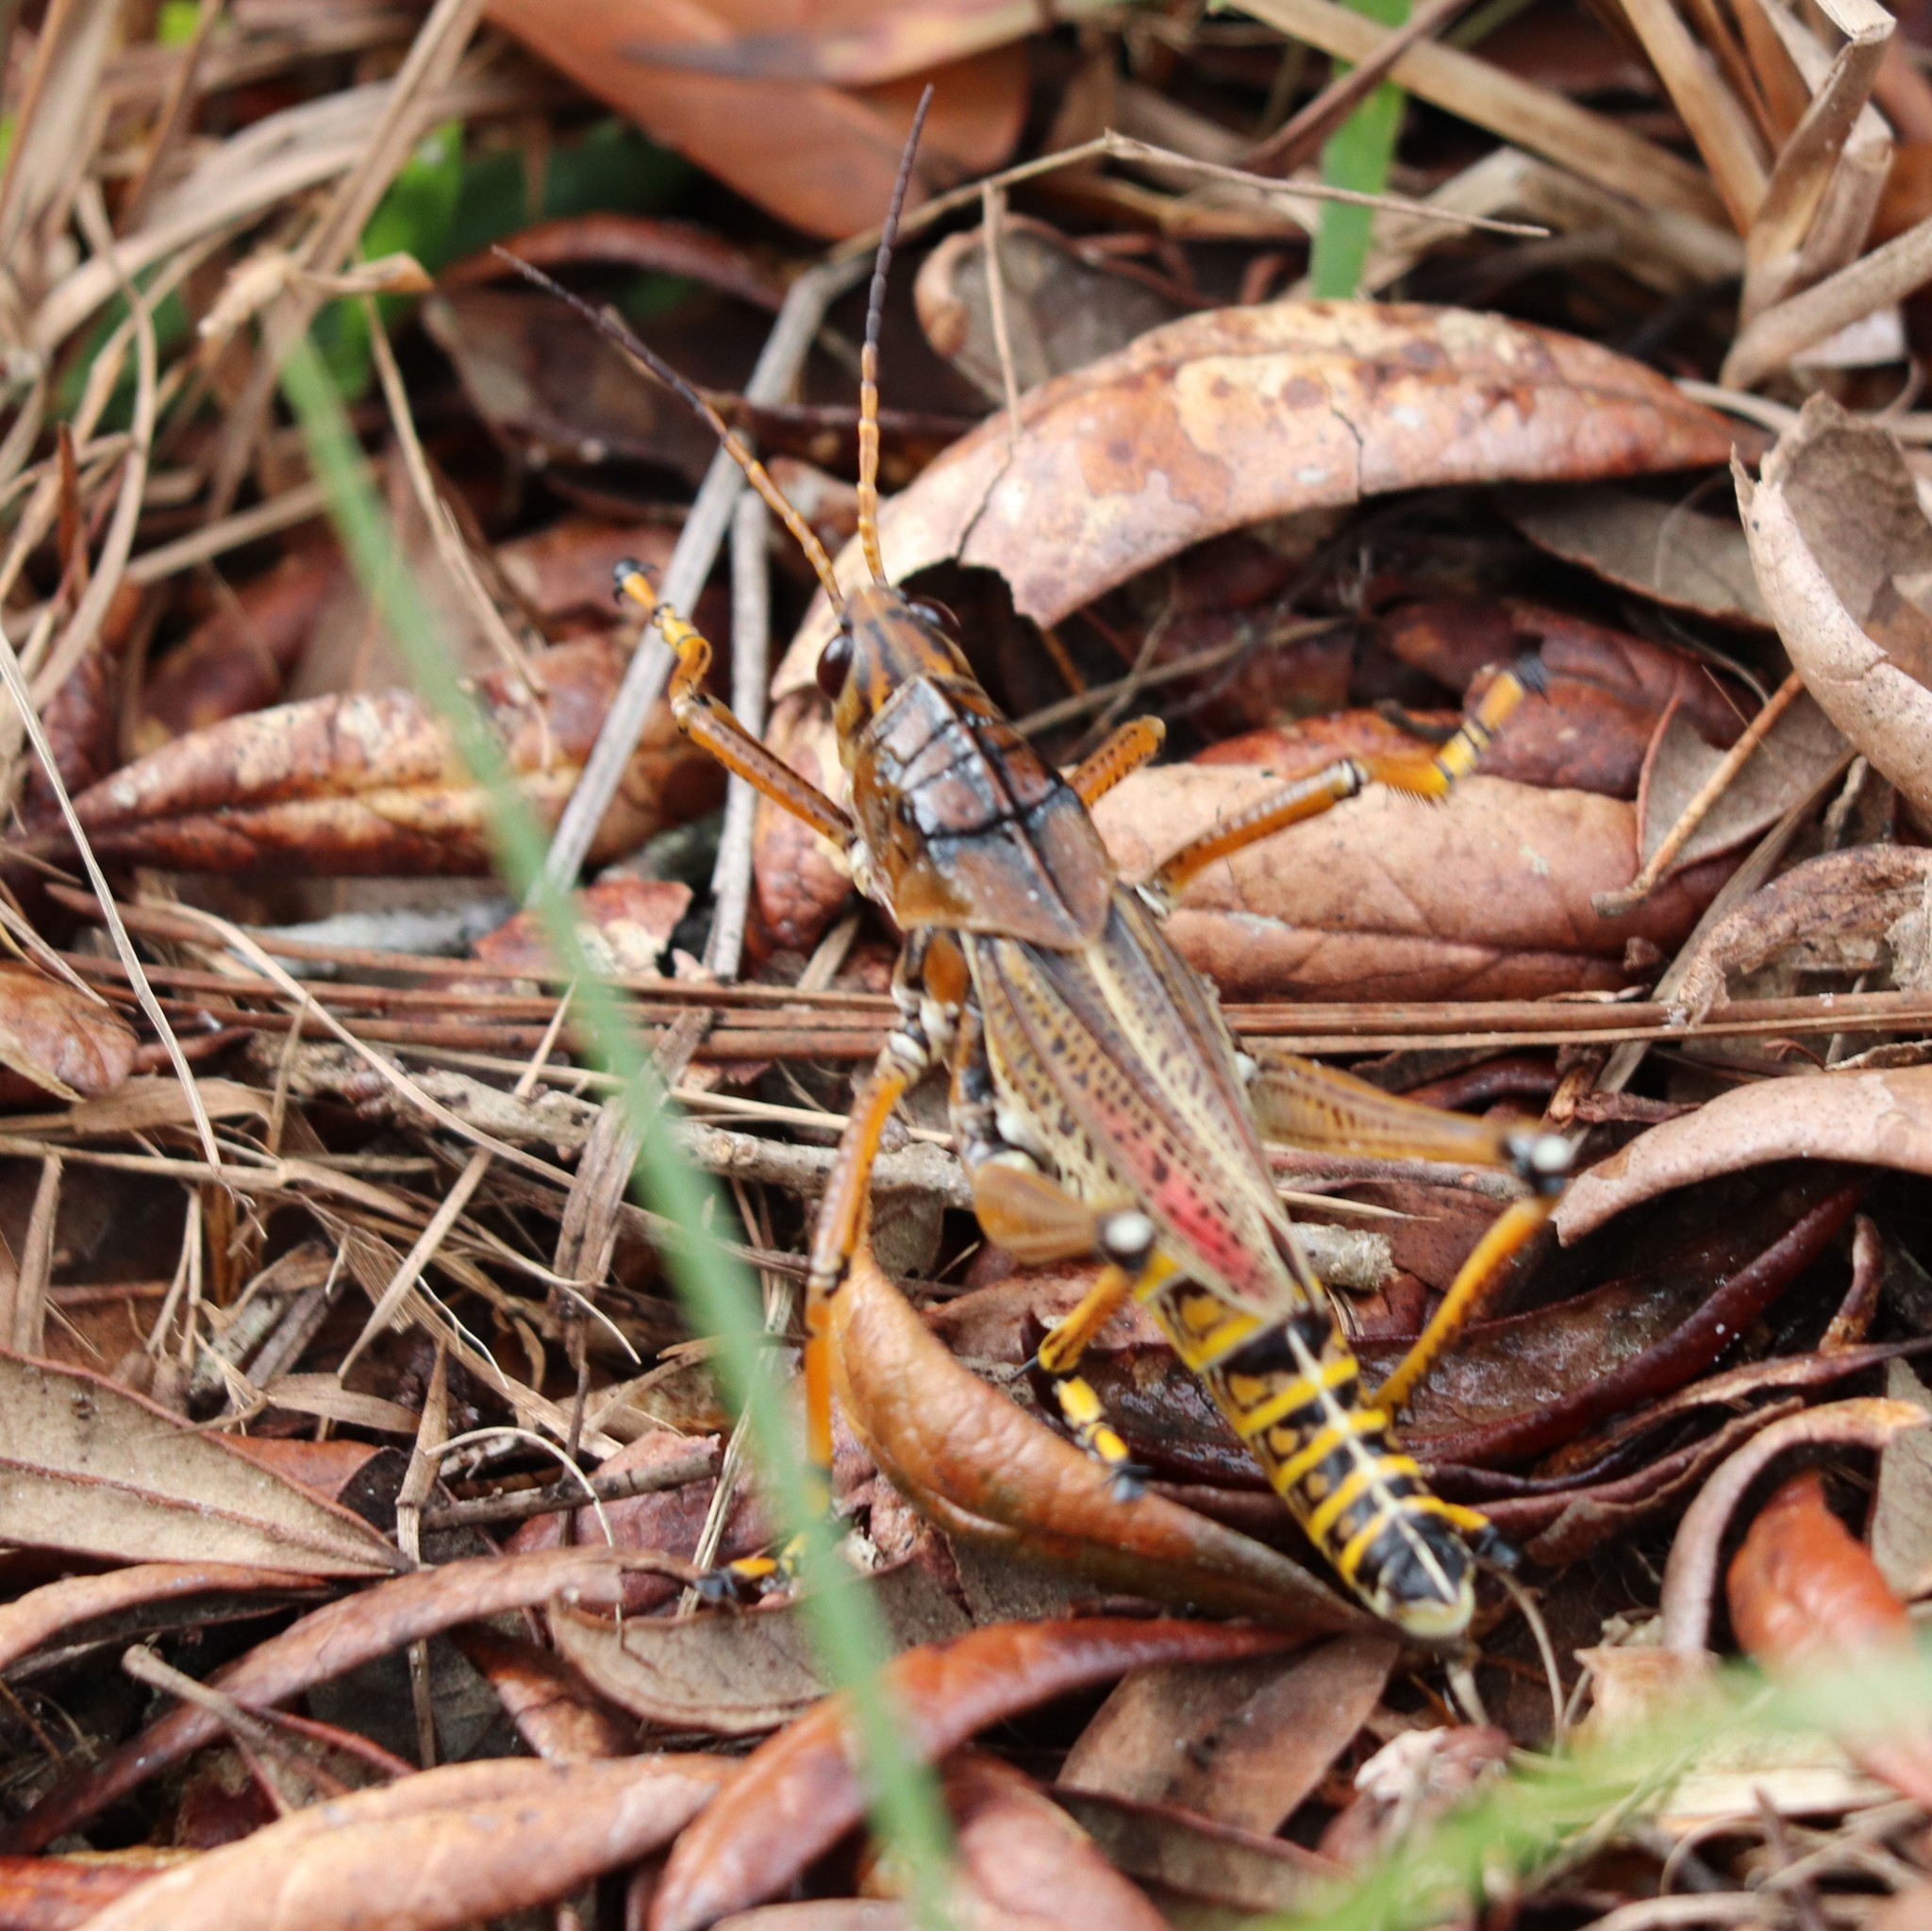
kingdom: Animalia
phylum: Arthropoda
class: Insecta
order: Orthoptera
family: Romaleidae
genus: Romalea
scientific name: Romalea microptera
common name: Eastern lubber grasshopper
